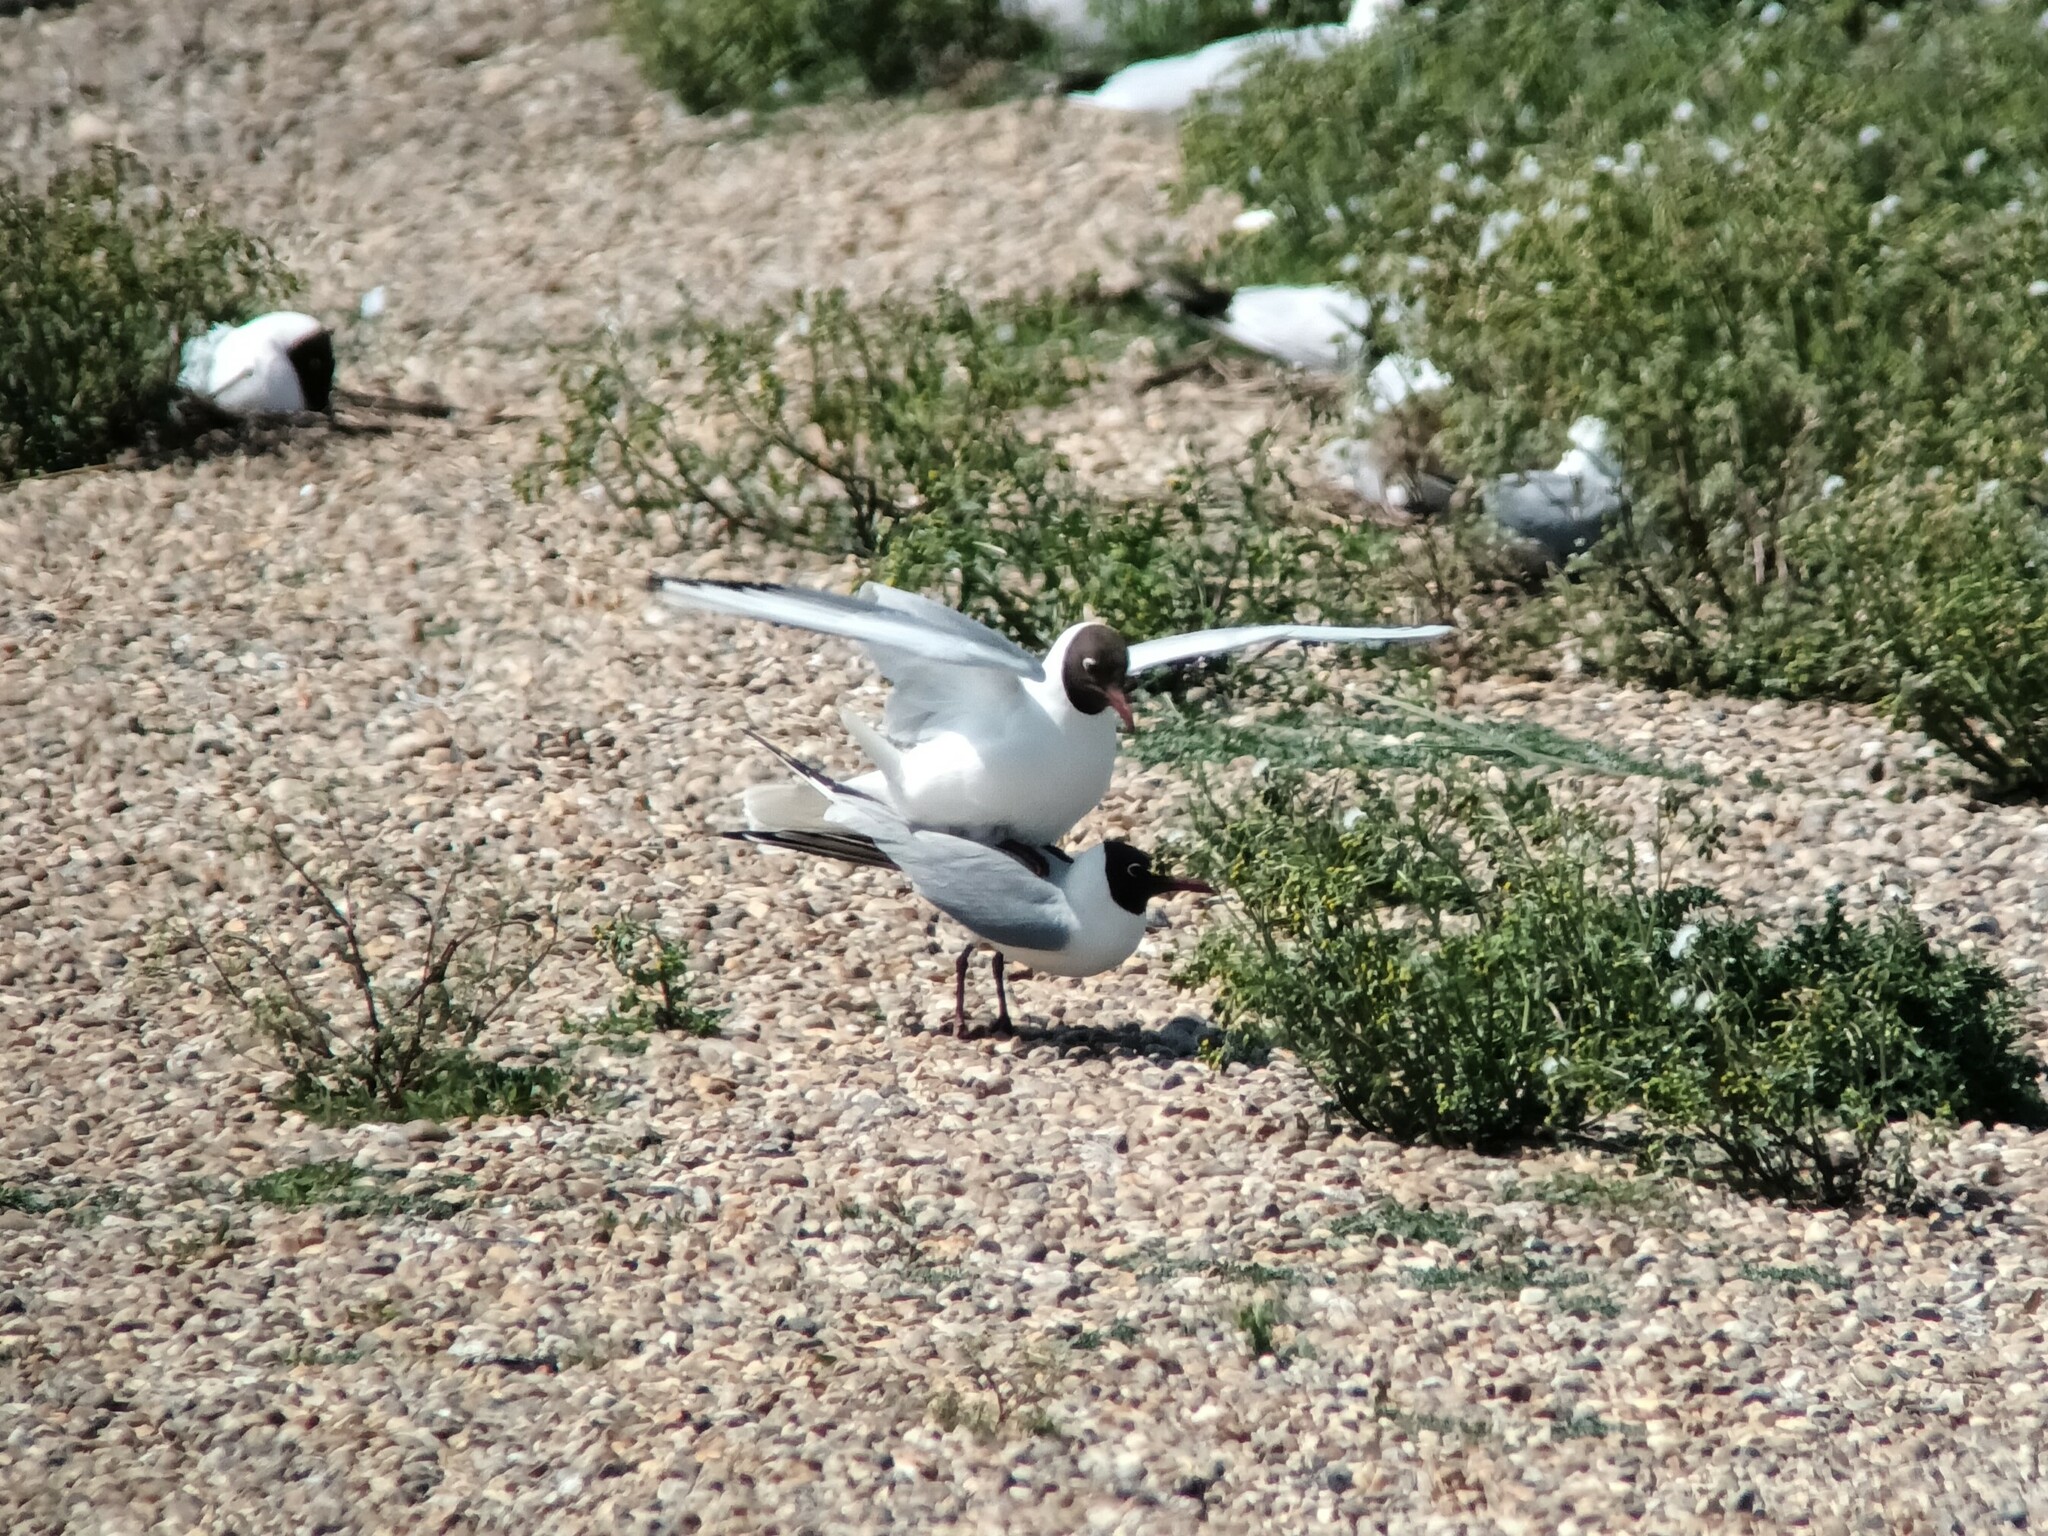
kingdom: Animalia
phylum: Chordata
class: Aves
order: Charadriiformes
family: Laridae
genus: Chroicocephalus
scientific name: Chroicocephalus ridibundus
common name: Black-headed gull
